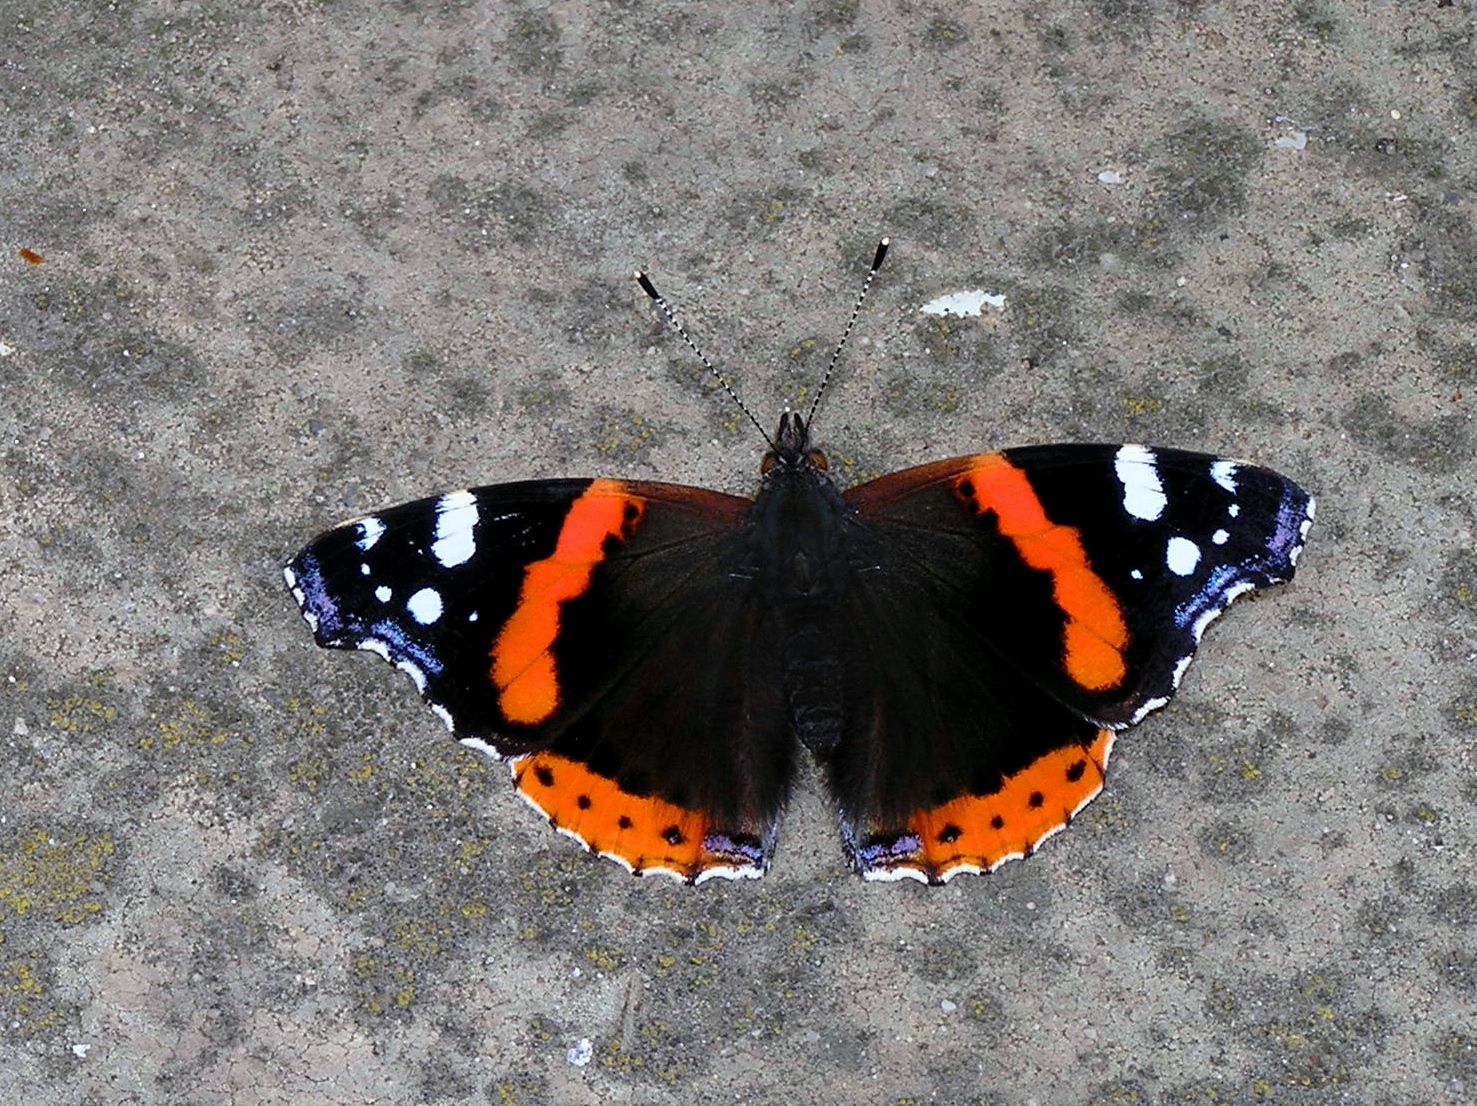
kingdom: Animalia
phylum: Arthropoda
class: Insecta
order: Lepidoptera
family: Nymphalidae
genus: Vanessa
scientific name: Vanessa atalanta
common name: Red admiral
